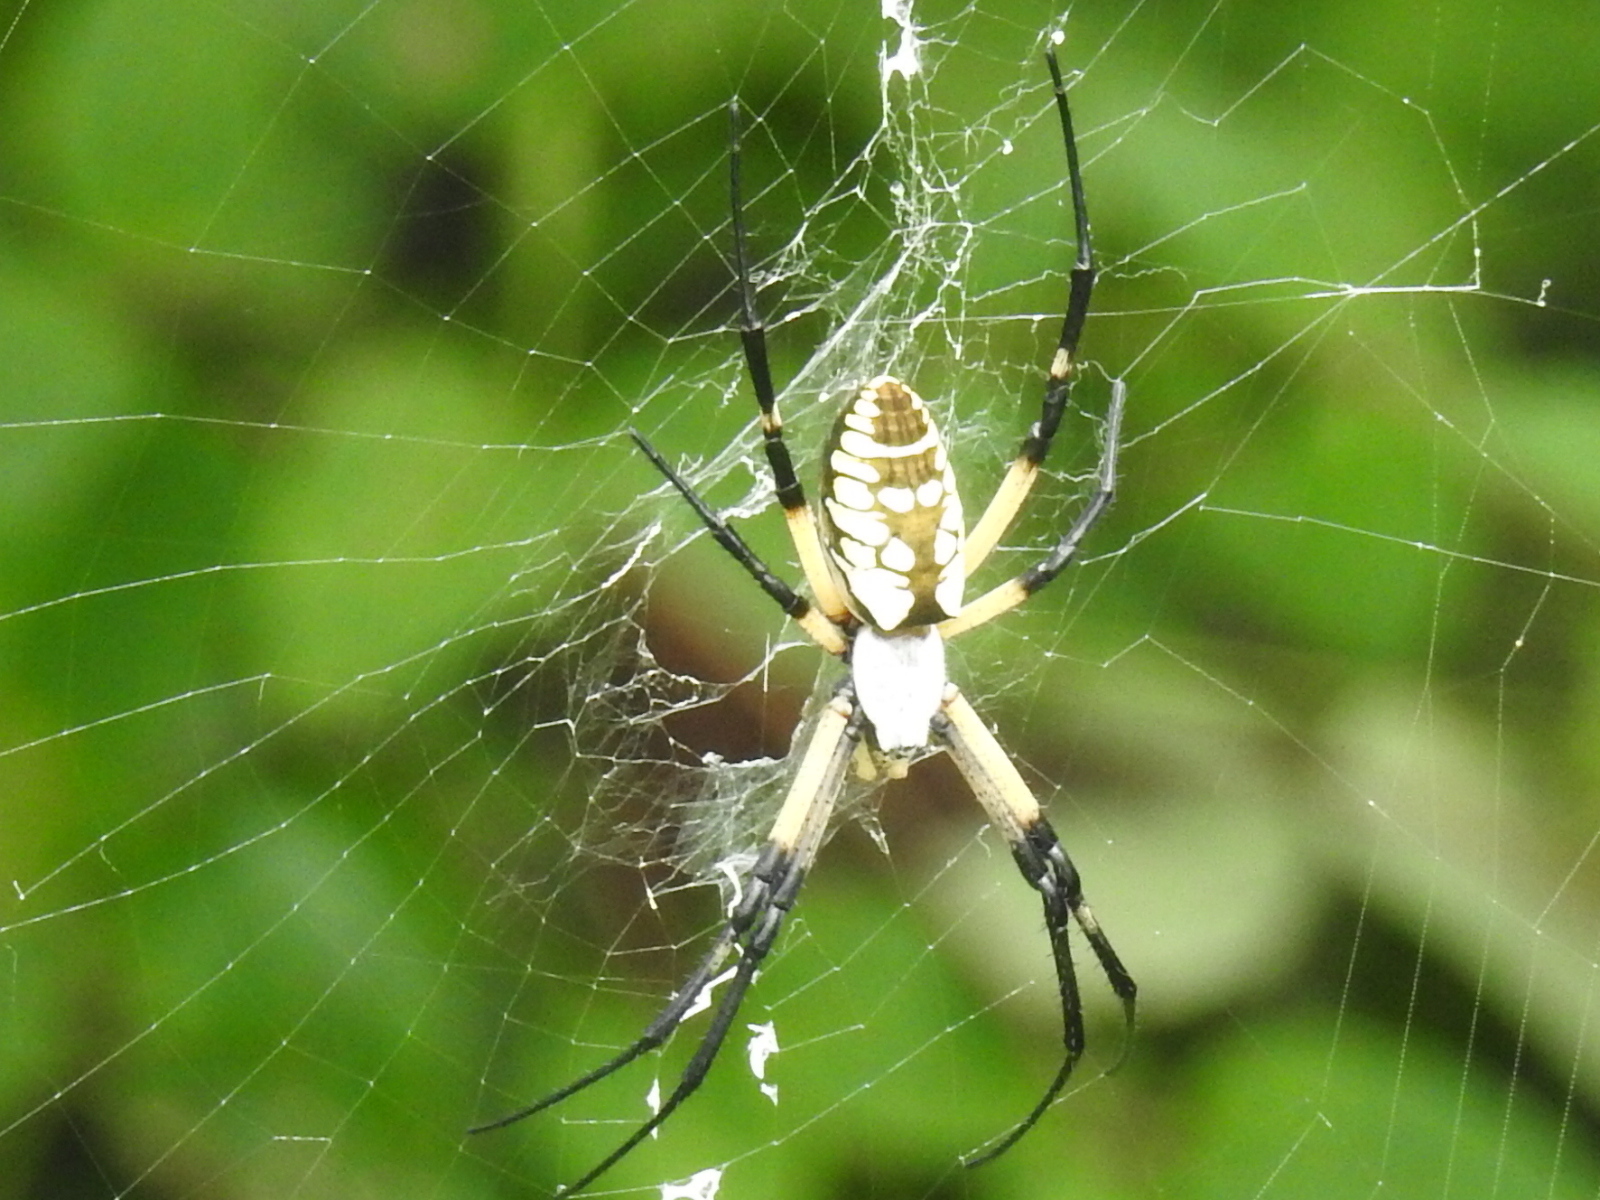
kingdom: Animalia
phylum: Arthropoda
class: Arachnida
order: Araneae
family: Araneidae
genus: Argiope
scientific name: Argiope aurantia
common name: Orb weavers
